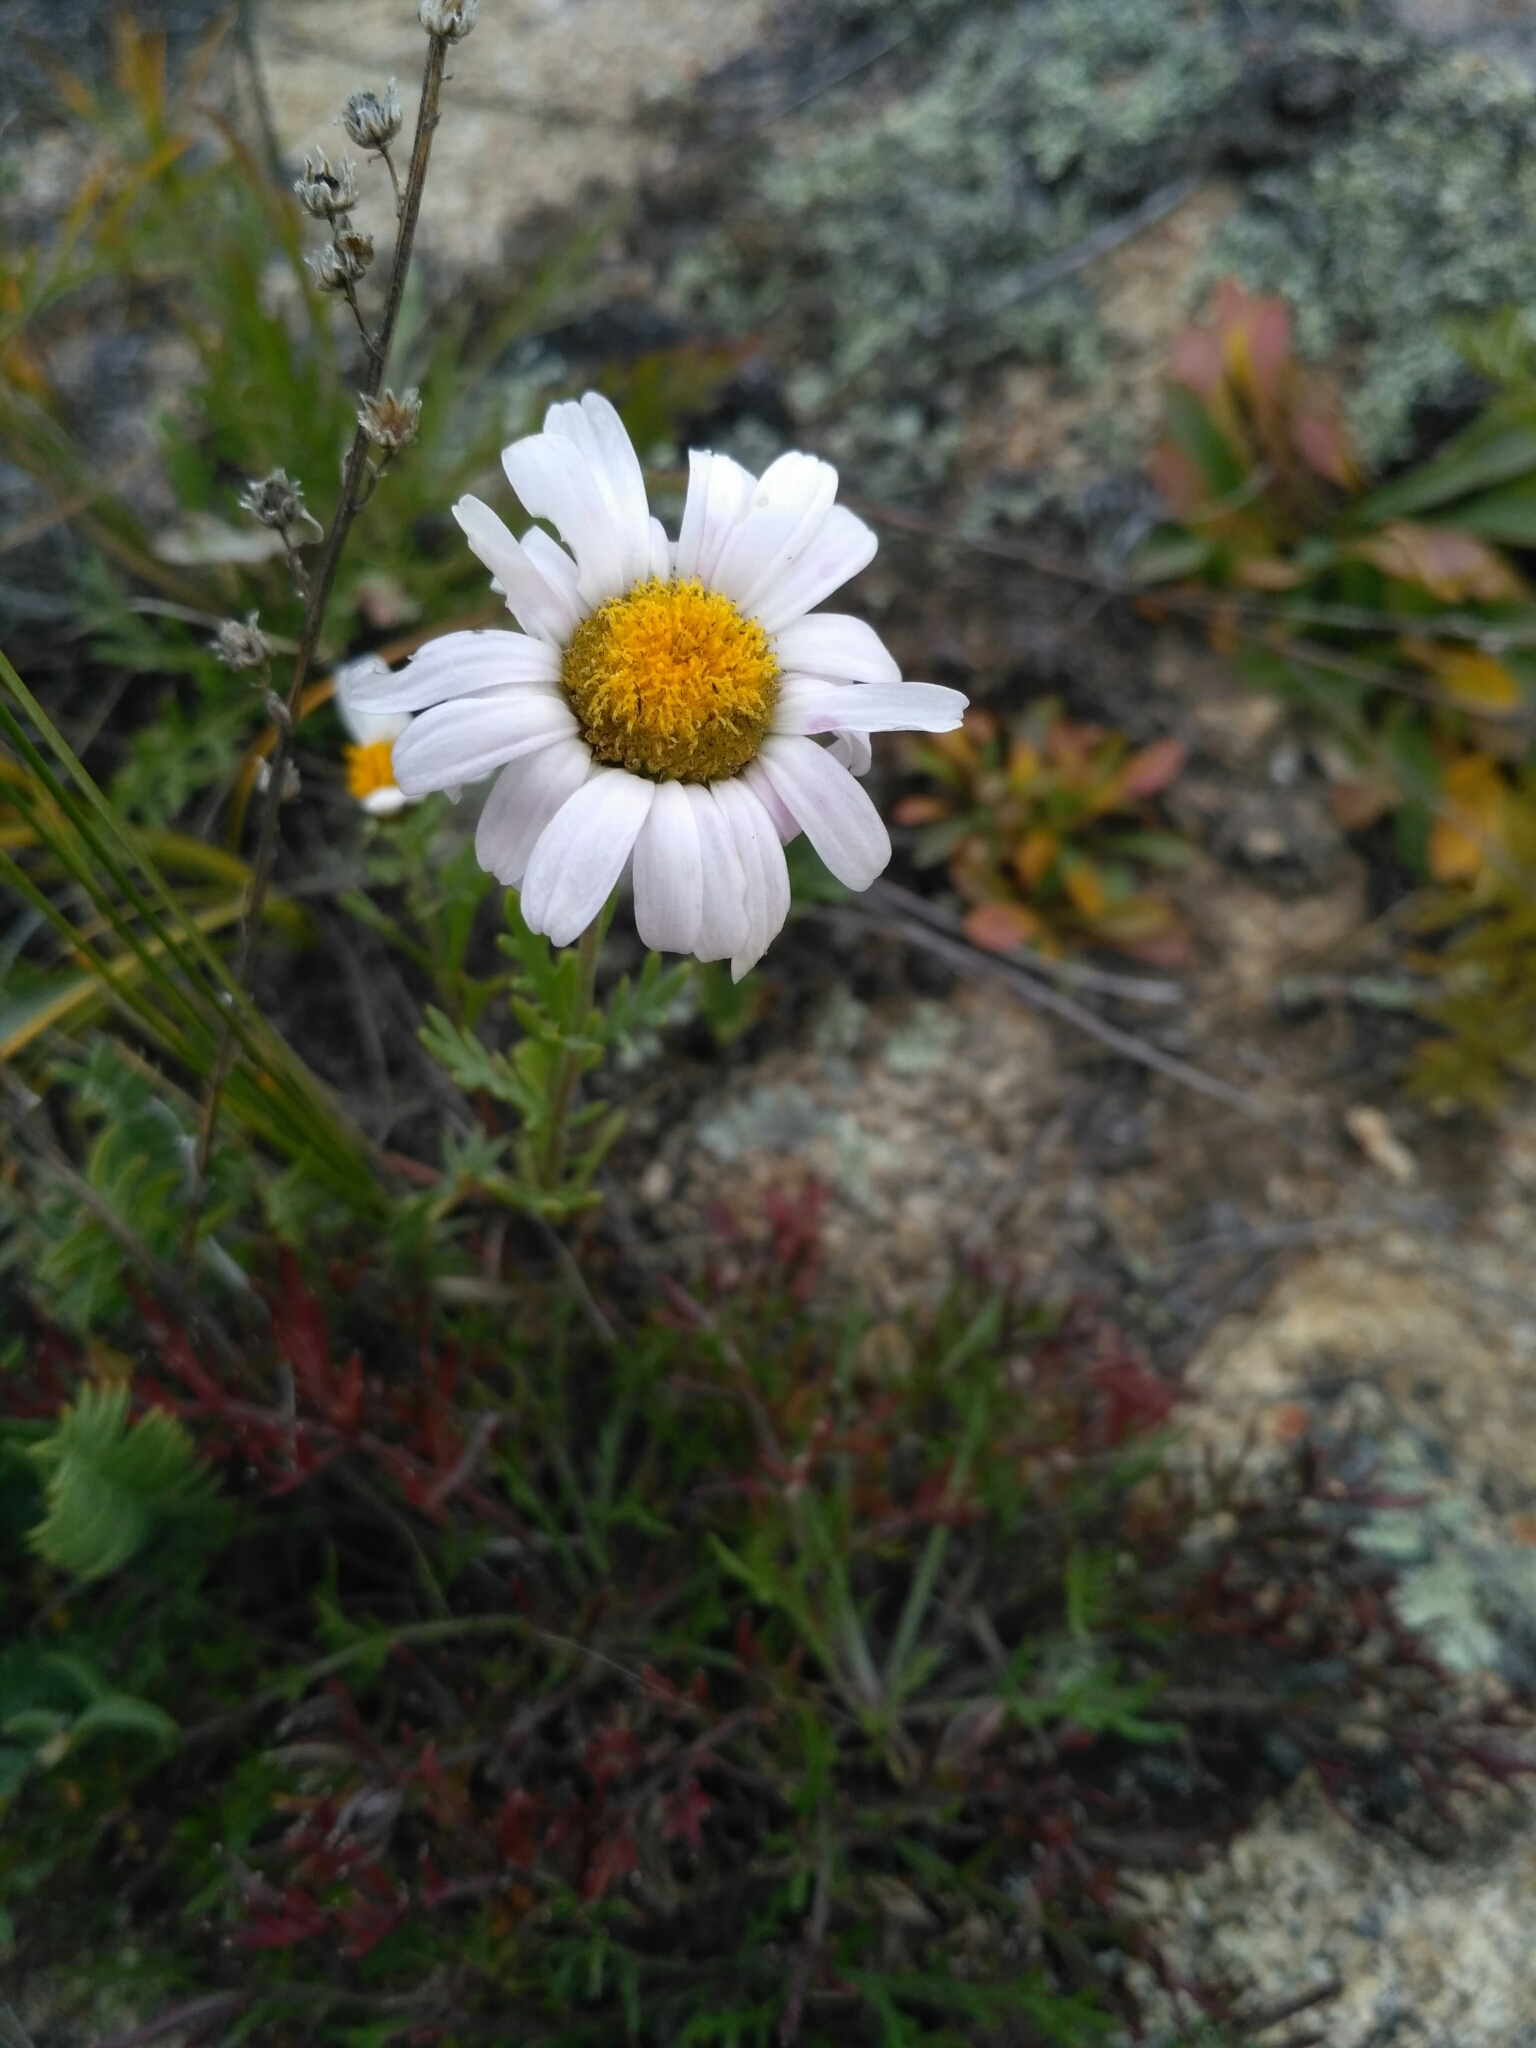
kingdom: Plantae
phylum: Tracheophyta
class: Magnoliopsida
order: Asterales
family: Asteraceae
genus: Chrysanthemum
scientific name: Chrysanthemum zawadzkii
